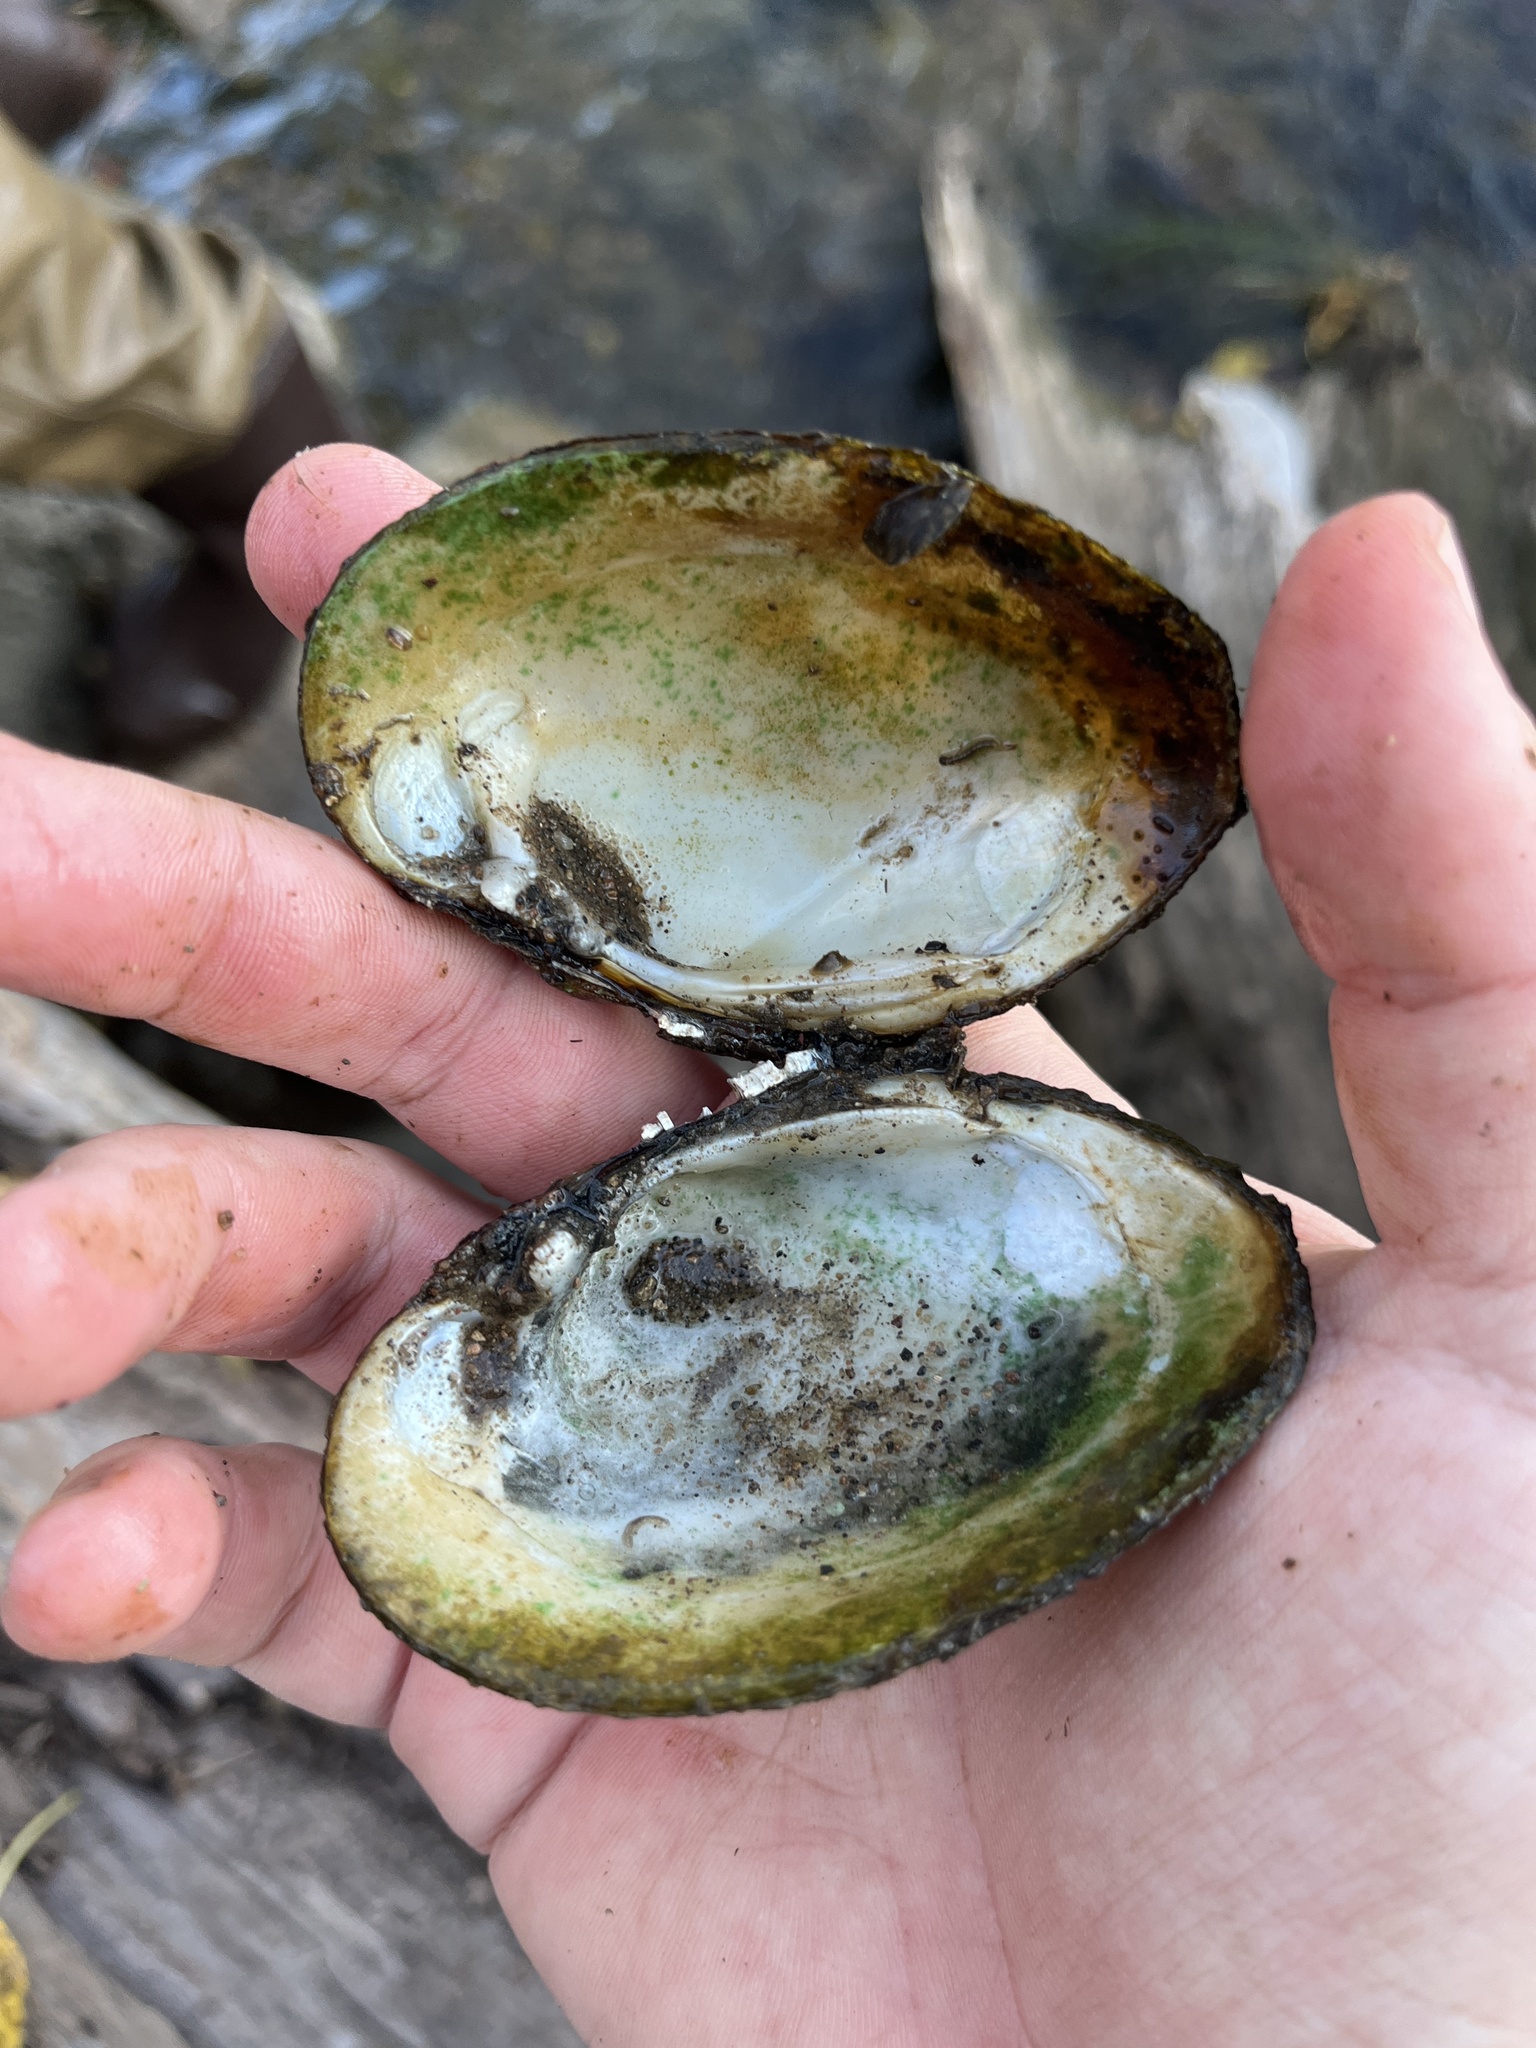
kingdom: Animalia
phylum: Mollusca
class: Bivalvia
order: Unionida
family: Unionidae
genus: Lampsilis
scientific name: Lampsilis fasciola
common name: Wavyrayed lampmussel
